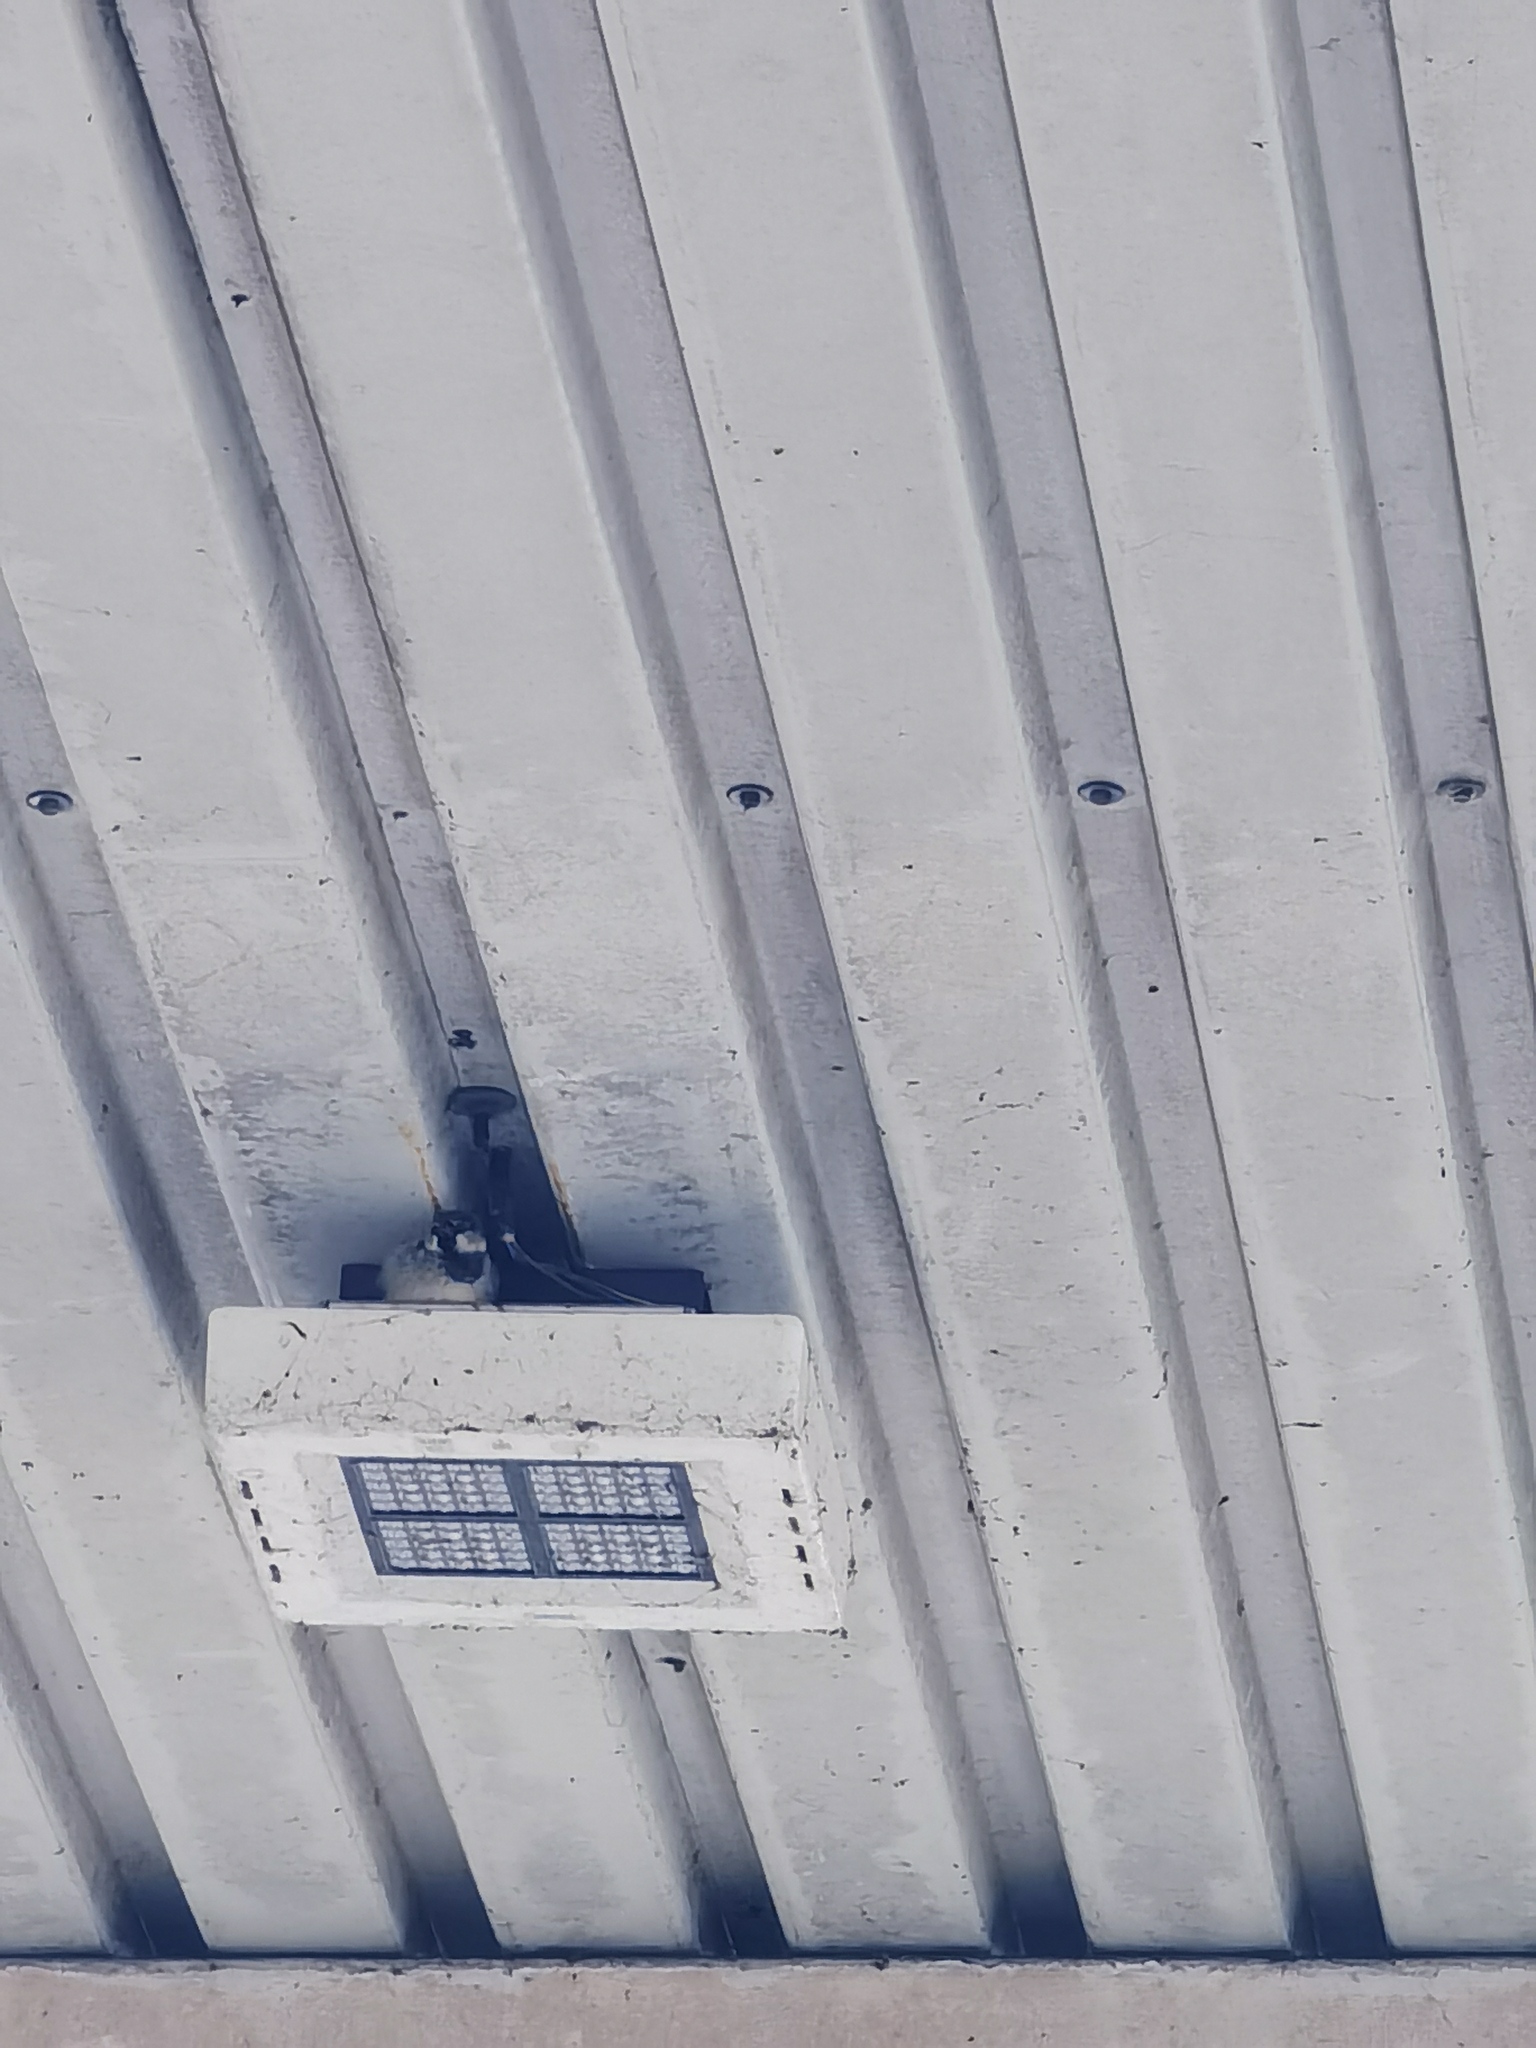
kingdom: Animalia
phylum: Chordata
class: Aves
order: Passeriformes
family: Passeridae
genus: Passer
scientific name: Passer domesticus
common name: House sparrow
